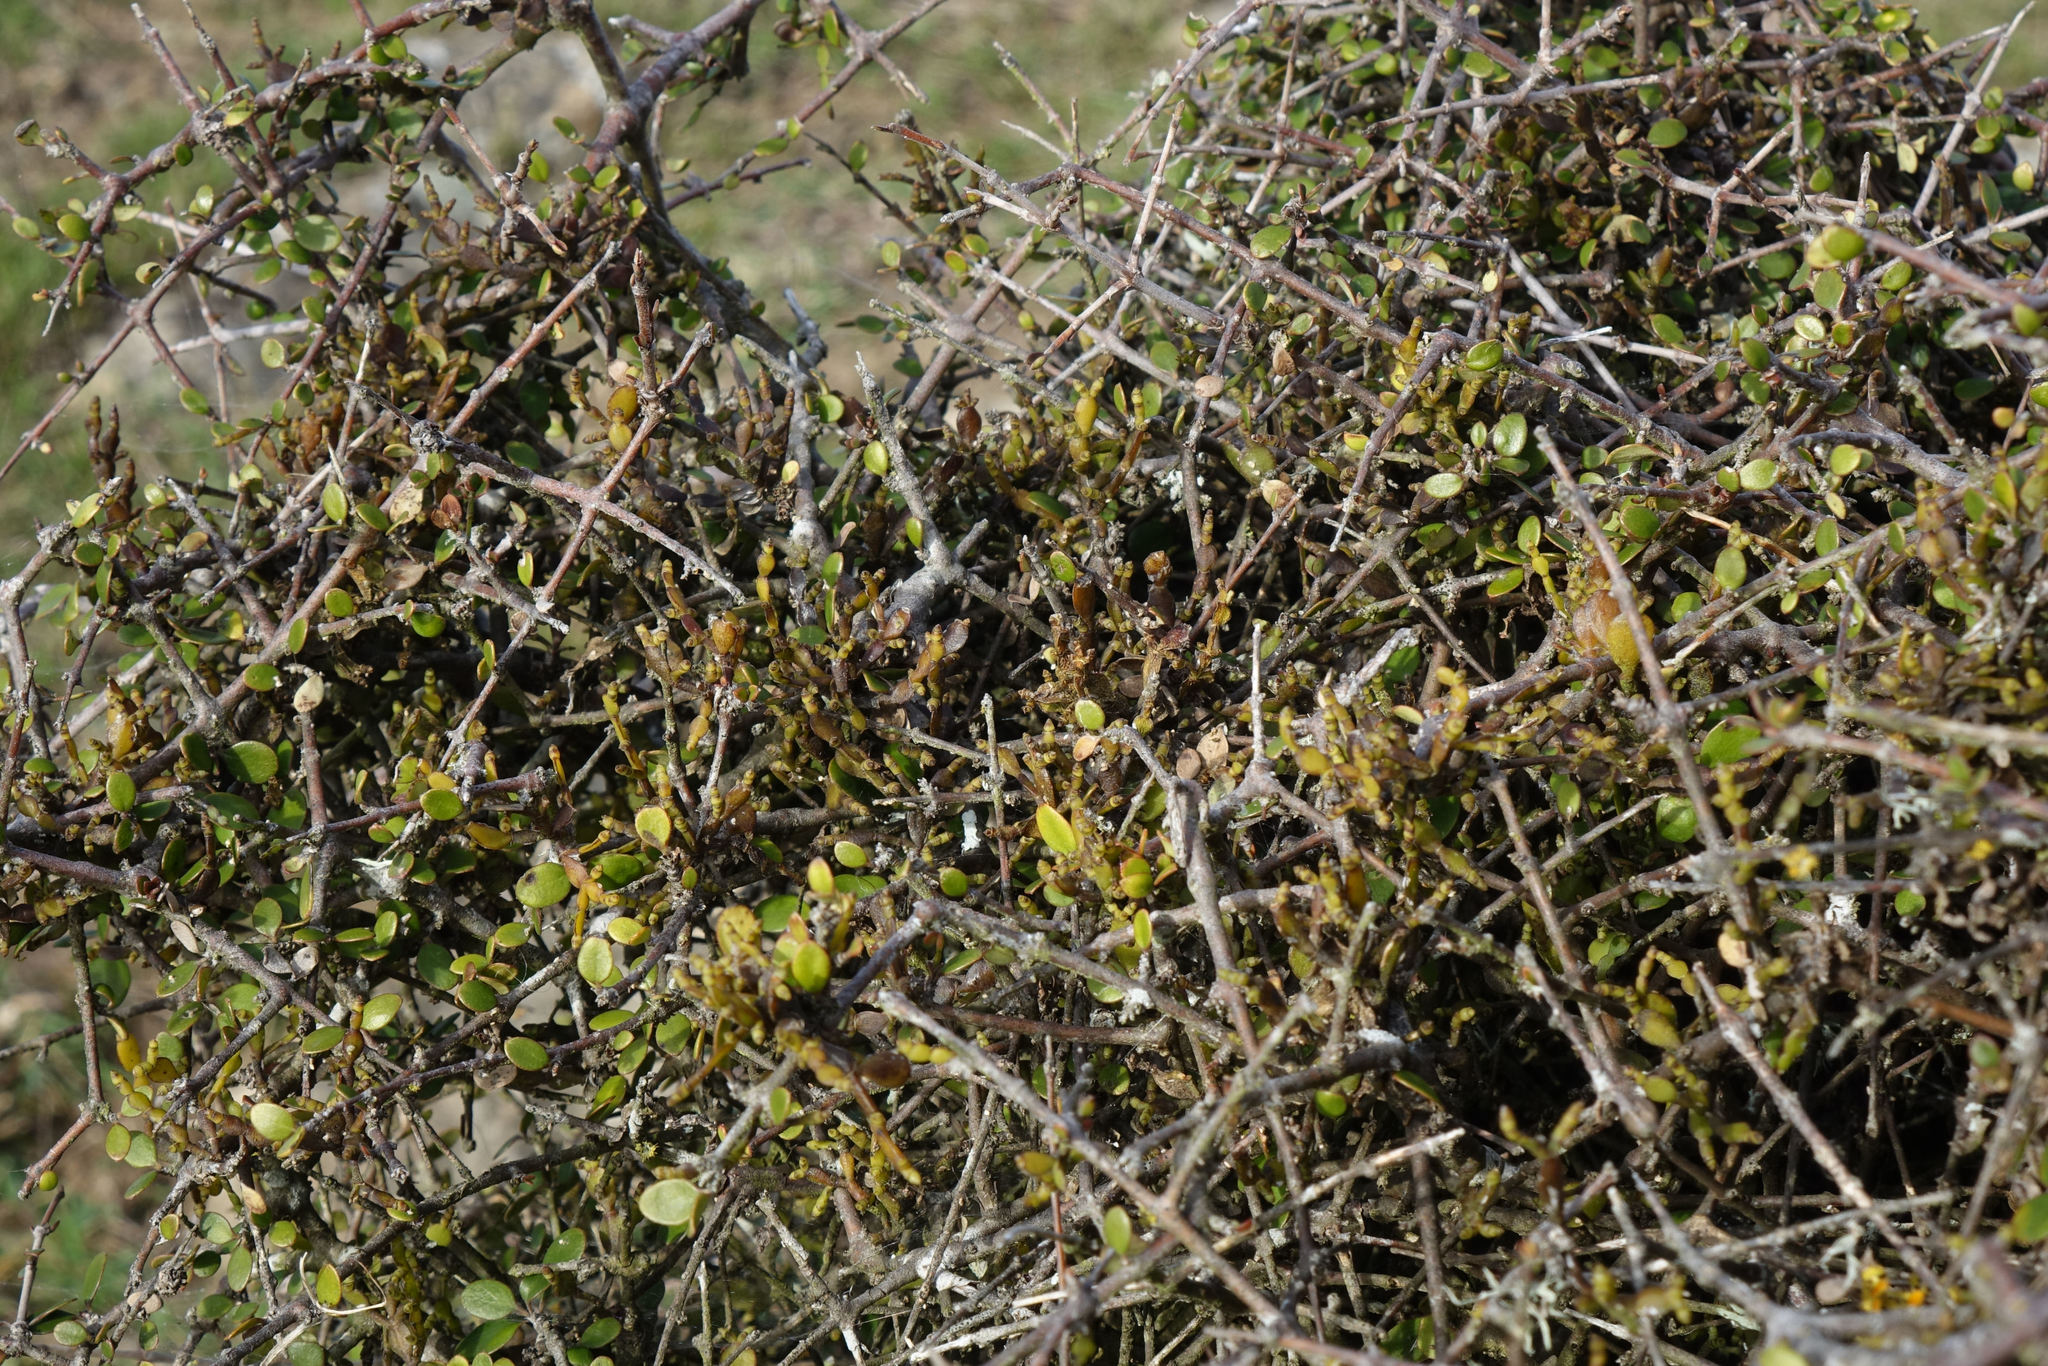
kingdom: Plantae
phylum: Tracheophyta
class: Magnoliopsida
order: Santalales
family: Viscaceae
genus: Korthalsella
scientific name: Korthalsella lindsayi
